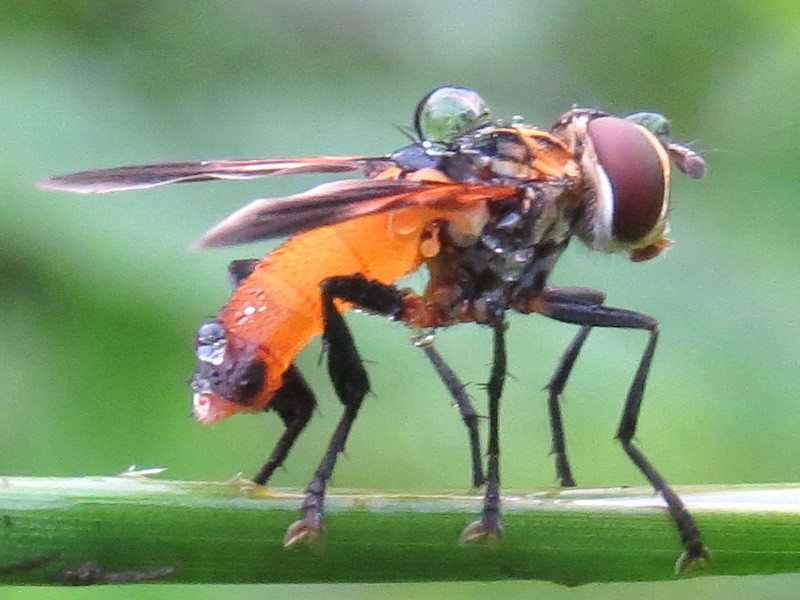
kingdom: Animalia
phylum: Arthropoda
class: Insecta
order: Diptera
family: Tachinidae
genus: Trichopoda
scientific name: Trichopoda pennipes
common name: Tachinid fly
